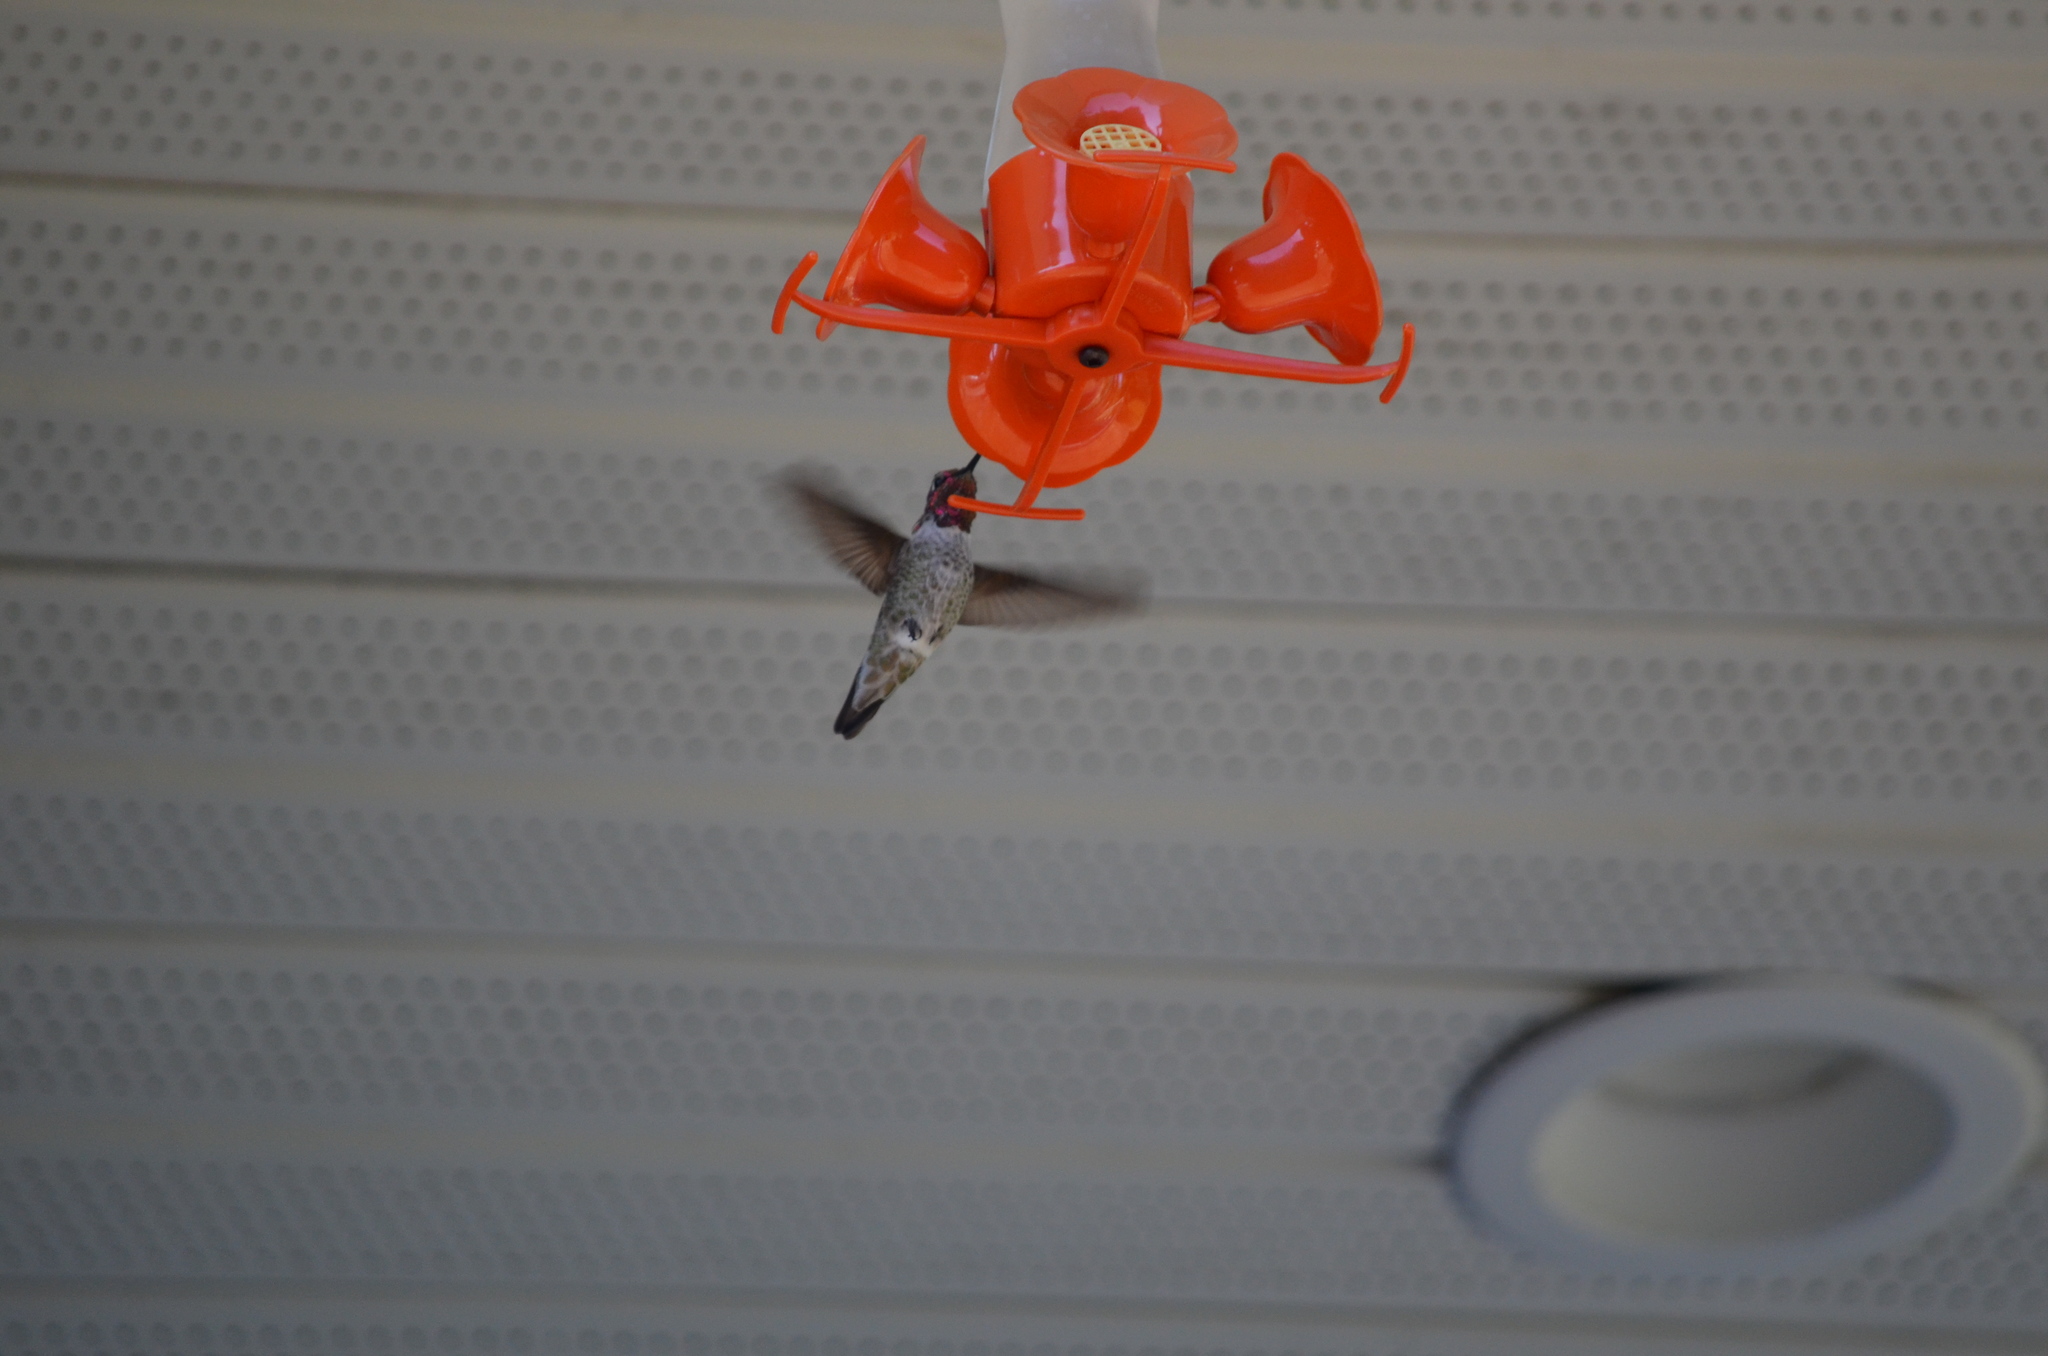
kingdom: Animalia
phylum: Chordata
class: Aves
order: Apodiformes
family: Trochilidae
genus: Calypte
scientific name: Calypte anna
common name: Anna's hummingbird
